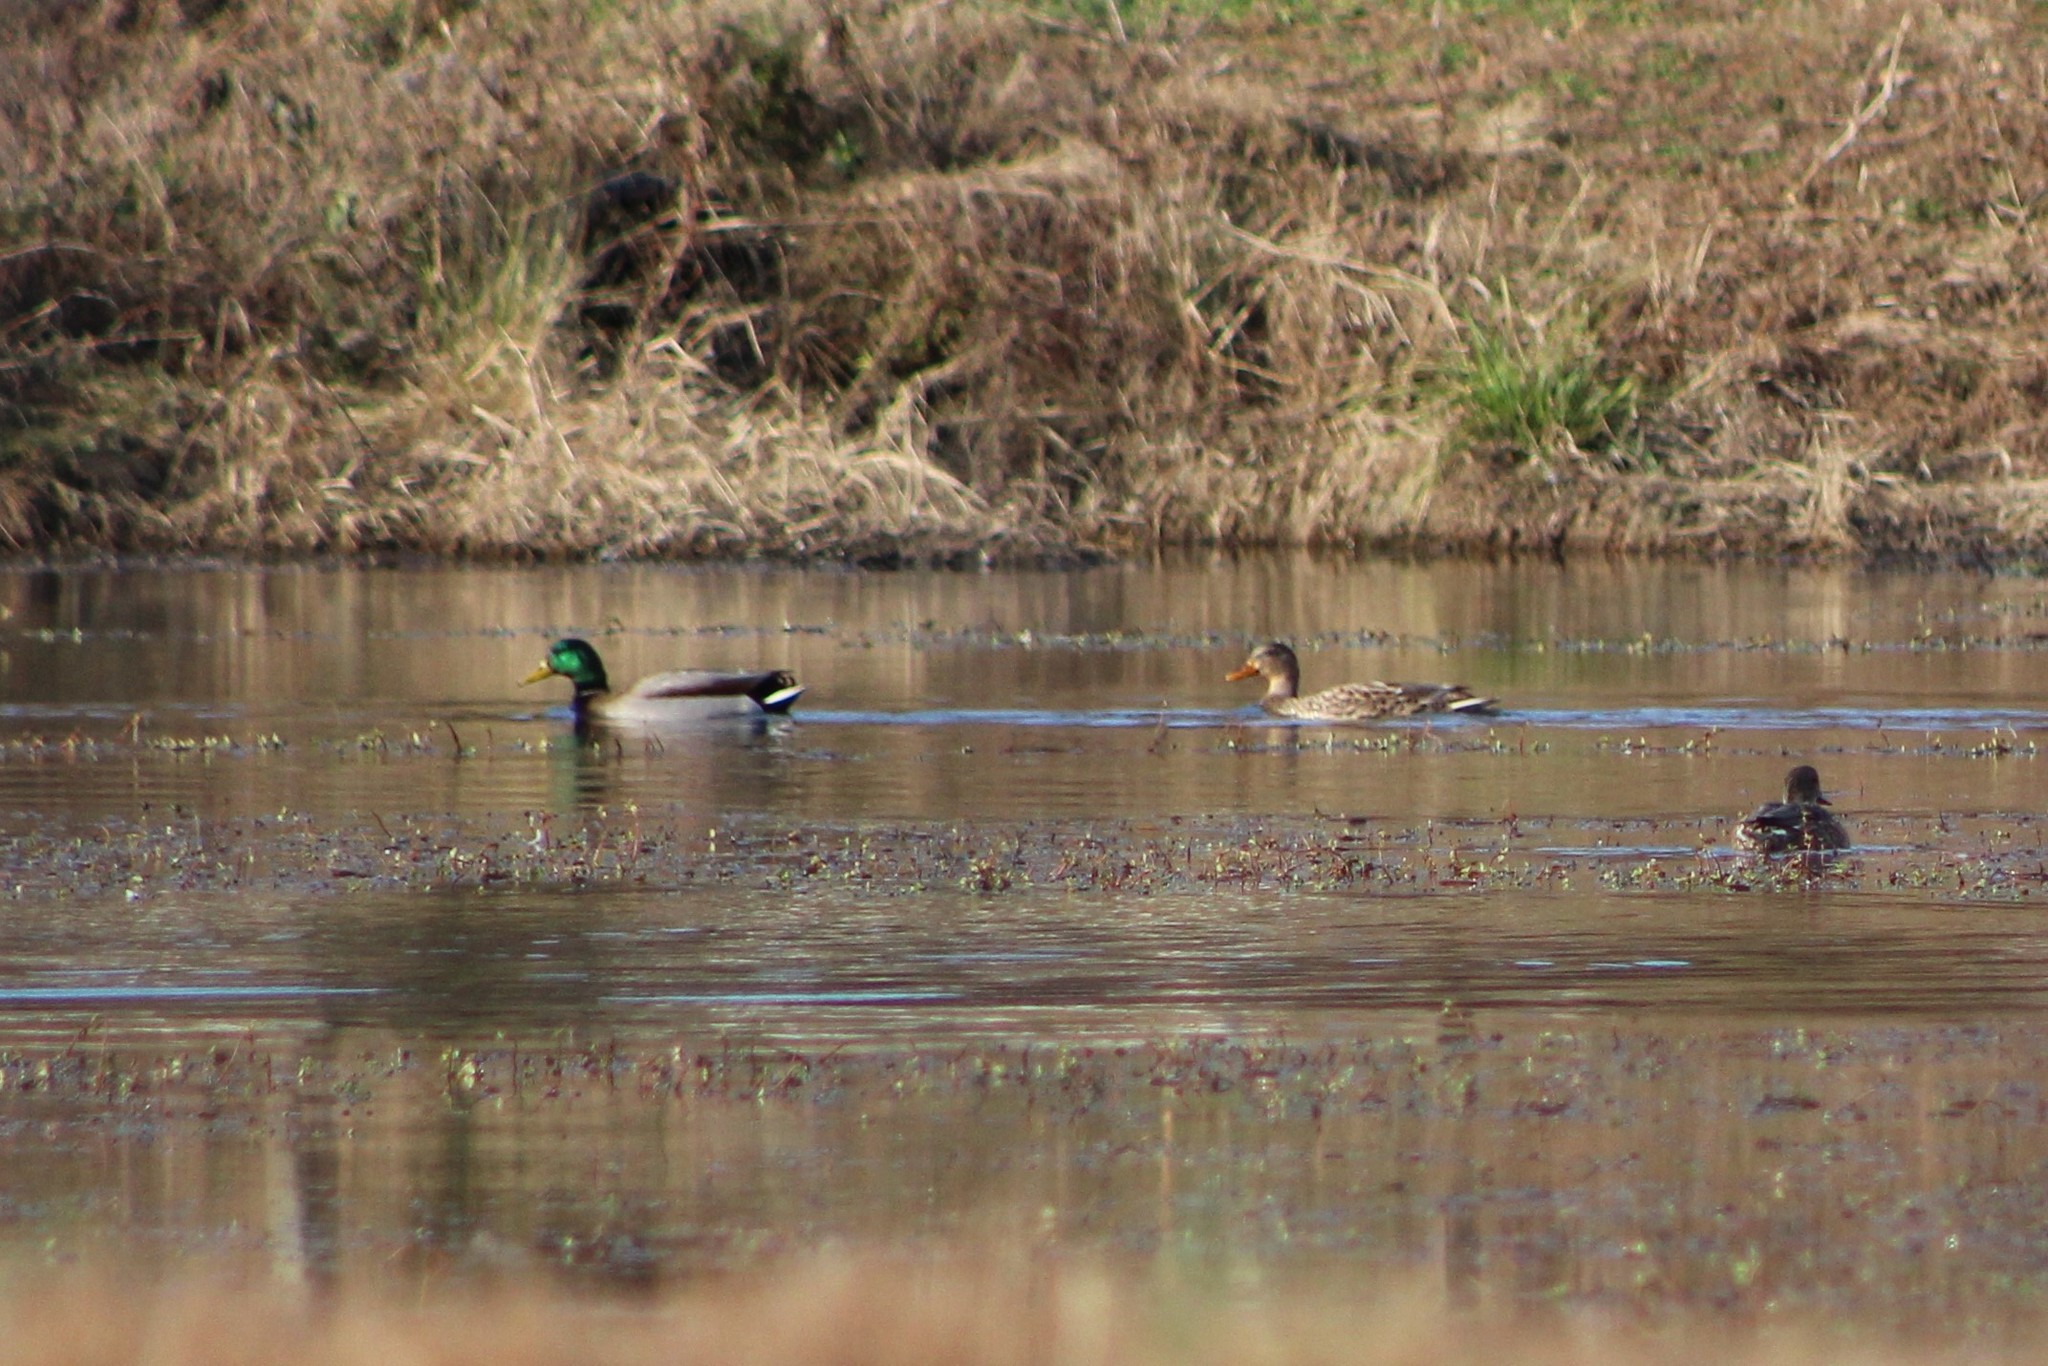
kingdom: Animalia
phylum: Chordata
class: Aves
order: Anseriformes
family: Anatidae
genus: Anas
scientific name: Anas platyrhynchos
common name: Mallard
